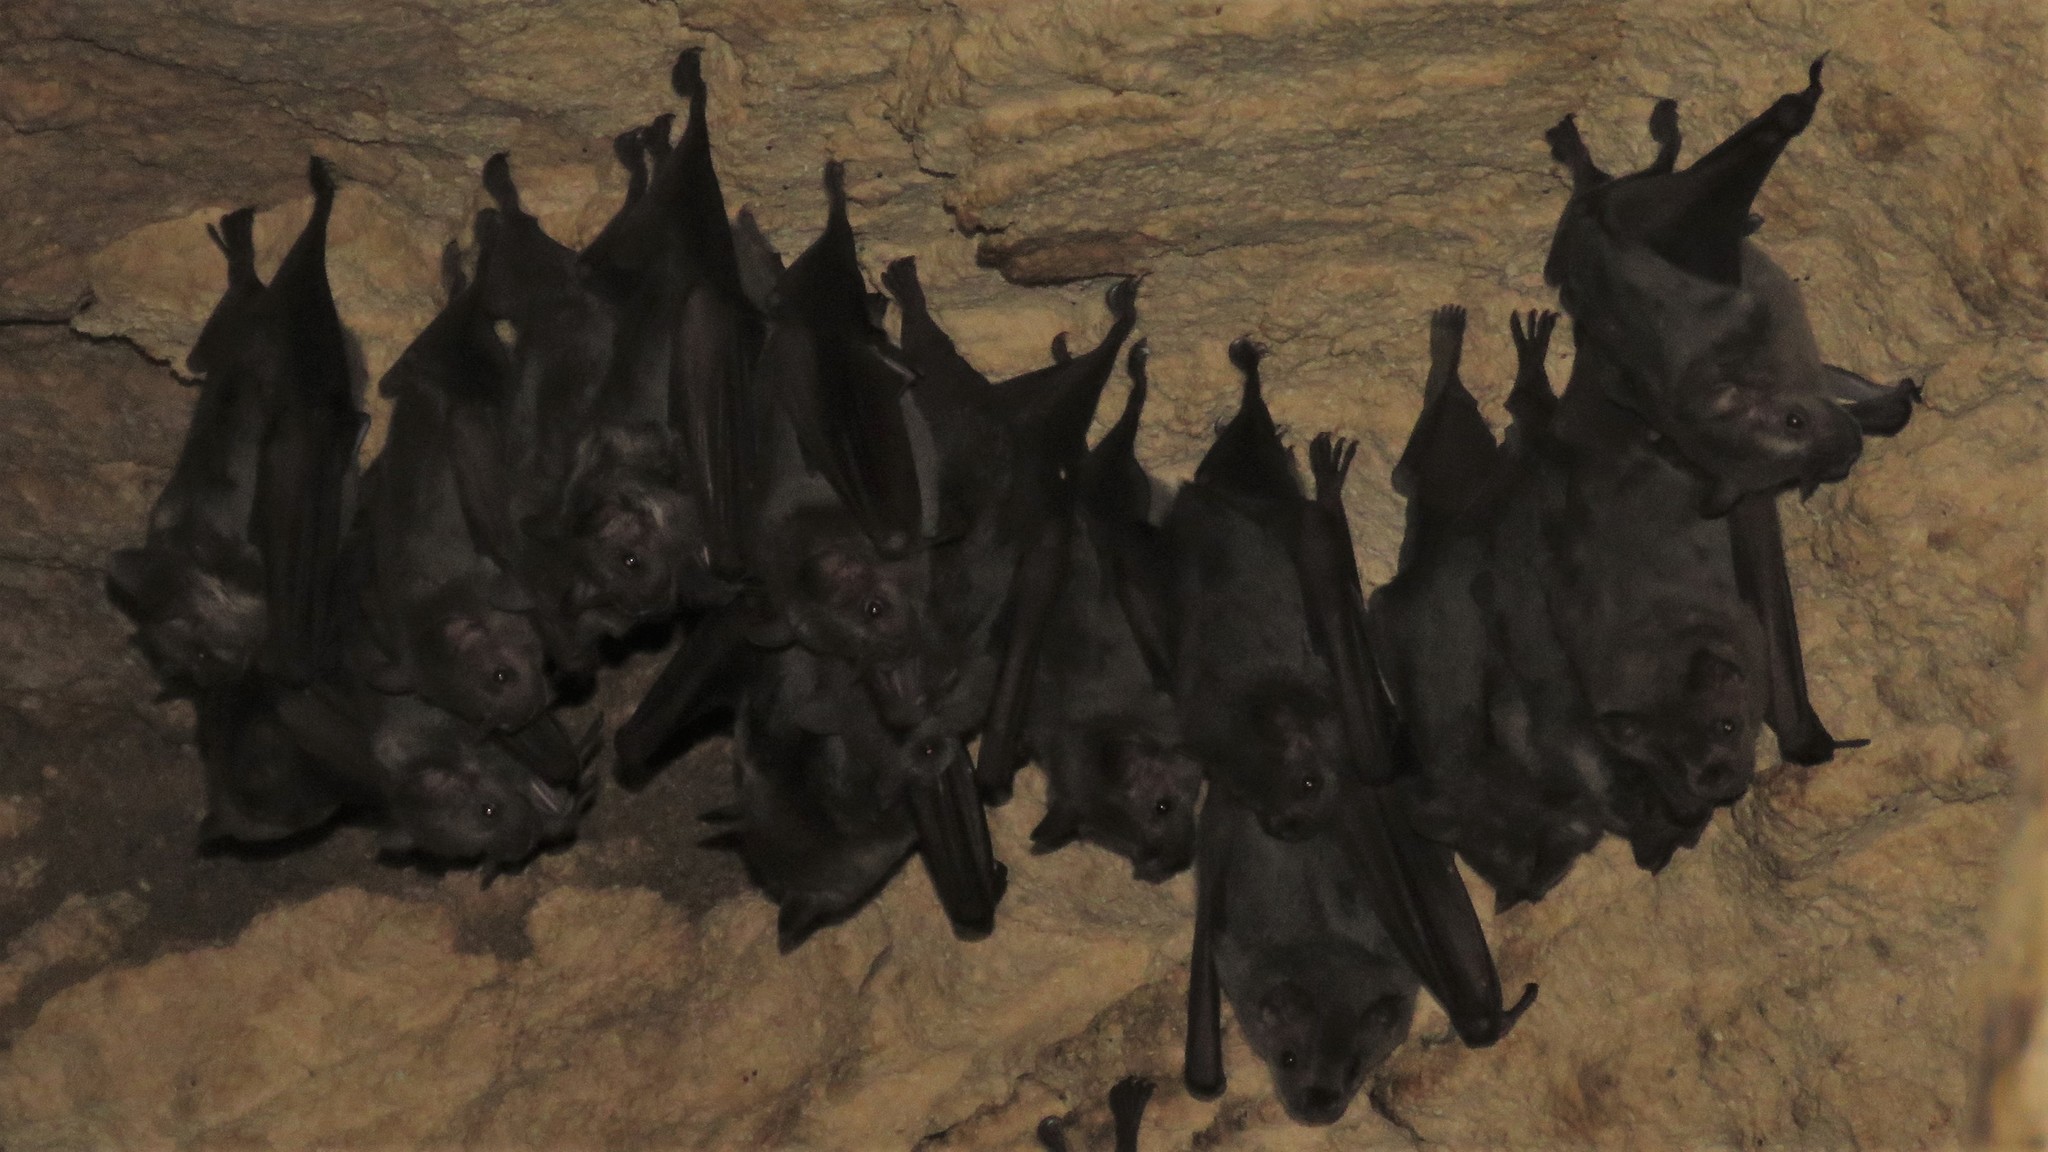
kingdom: Animalia
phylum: Chordata
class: Mammalia
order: Chiroptera
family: Phyllostomidae
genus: Artibeus
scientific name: Artibeus jamaicensis
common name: Jamaican fruit-eating bat
